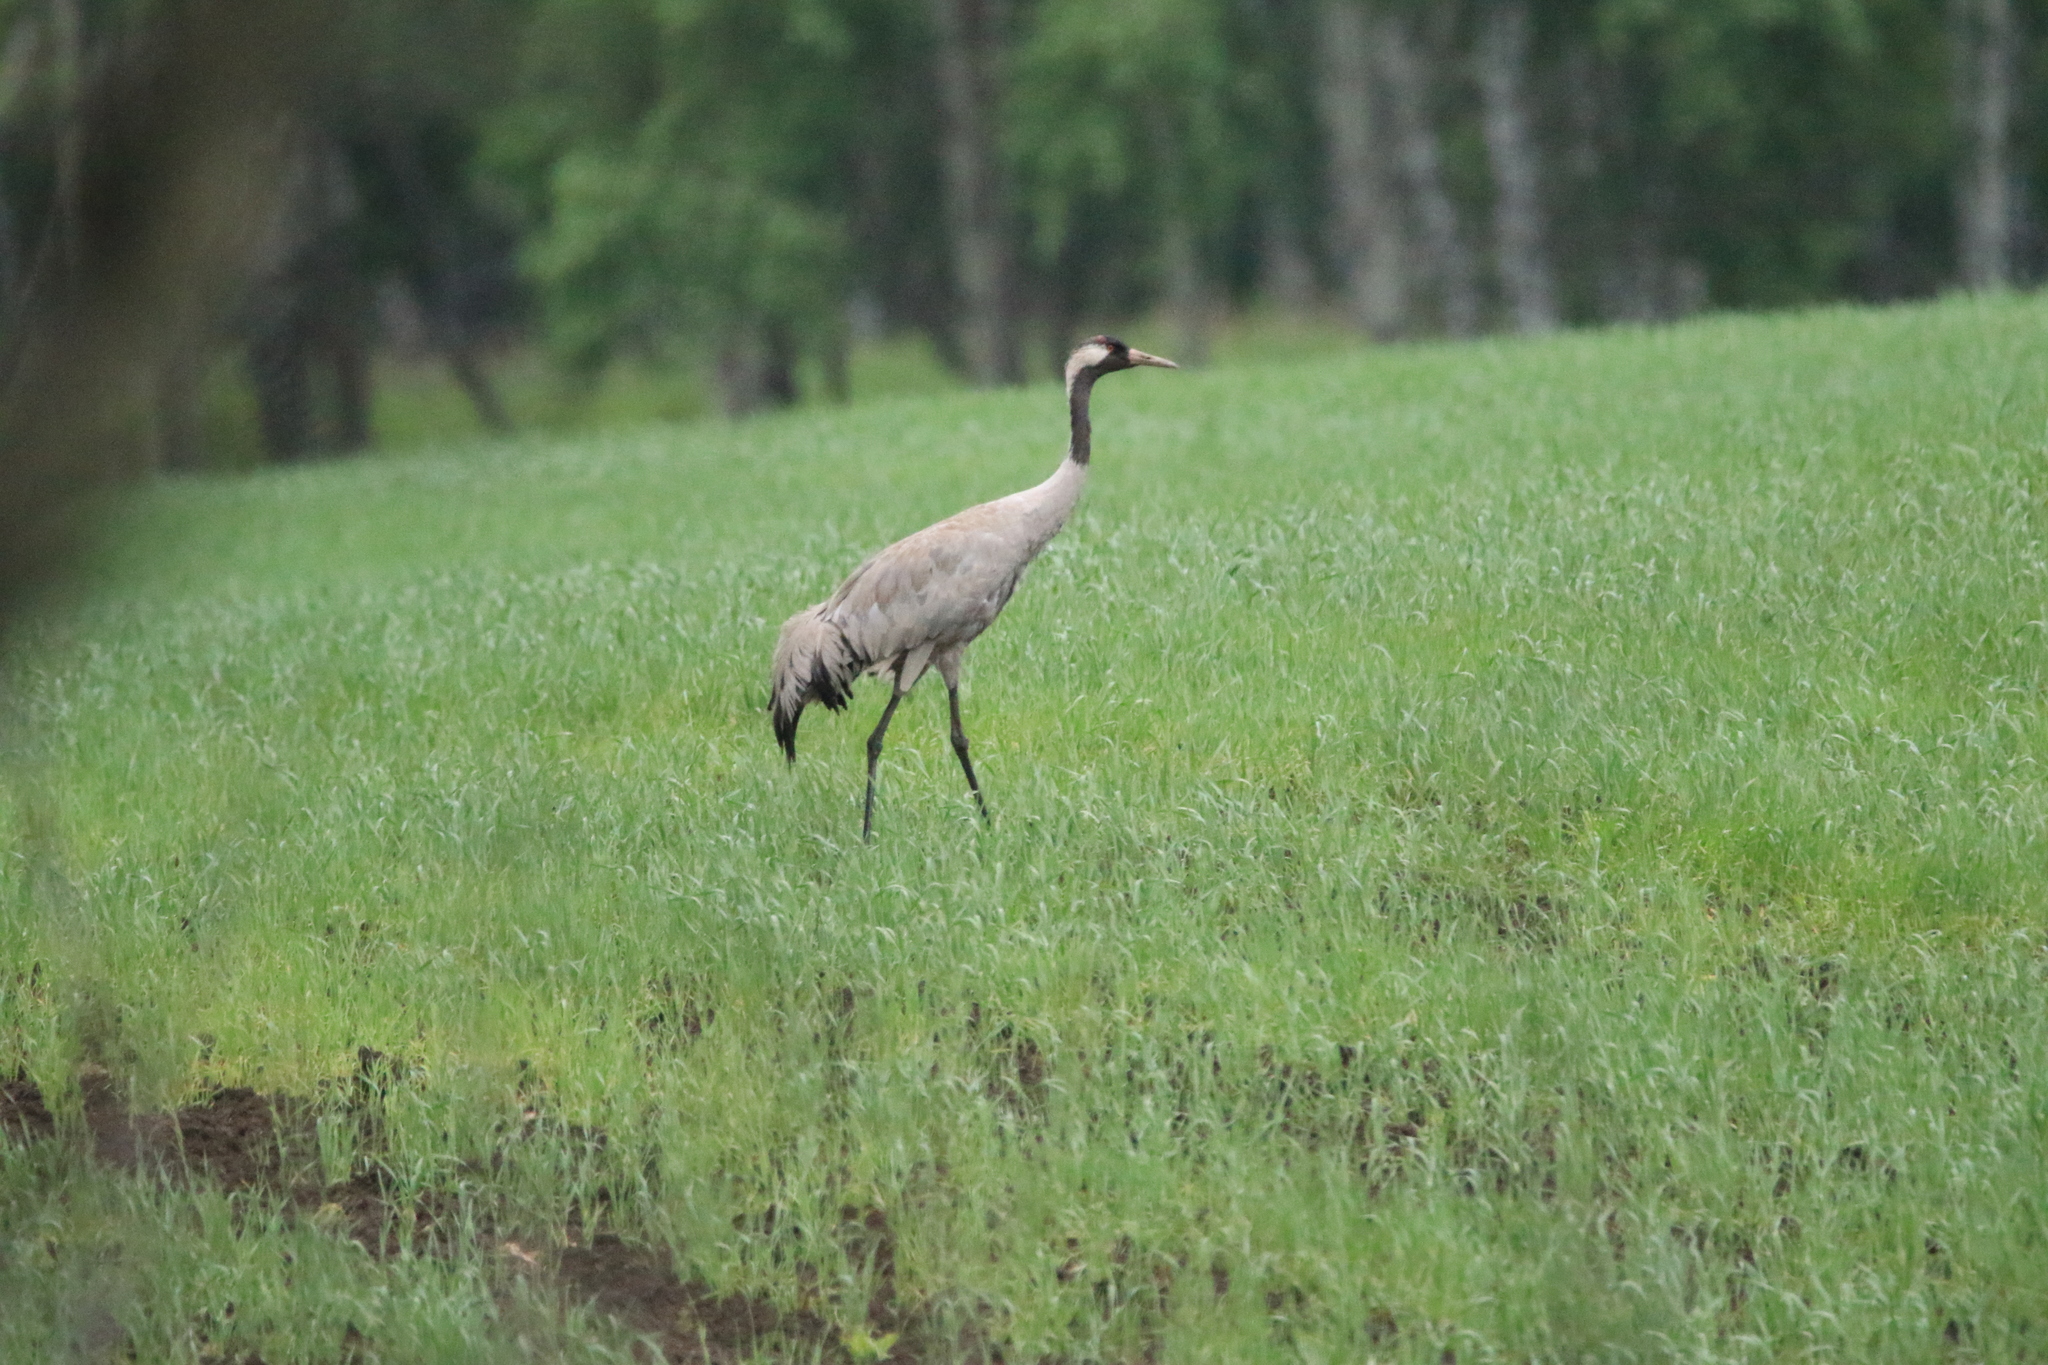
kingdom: Animalia
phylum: Chordata
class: Aves
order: Gruiformes
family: Gruidae
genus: Grus
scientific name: Grus grus
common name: Common crane
